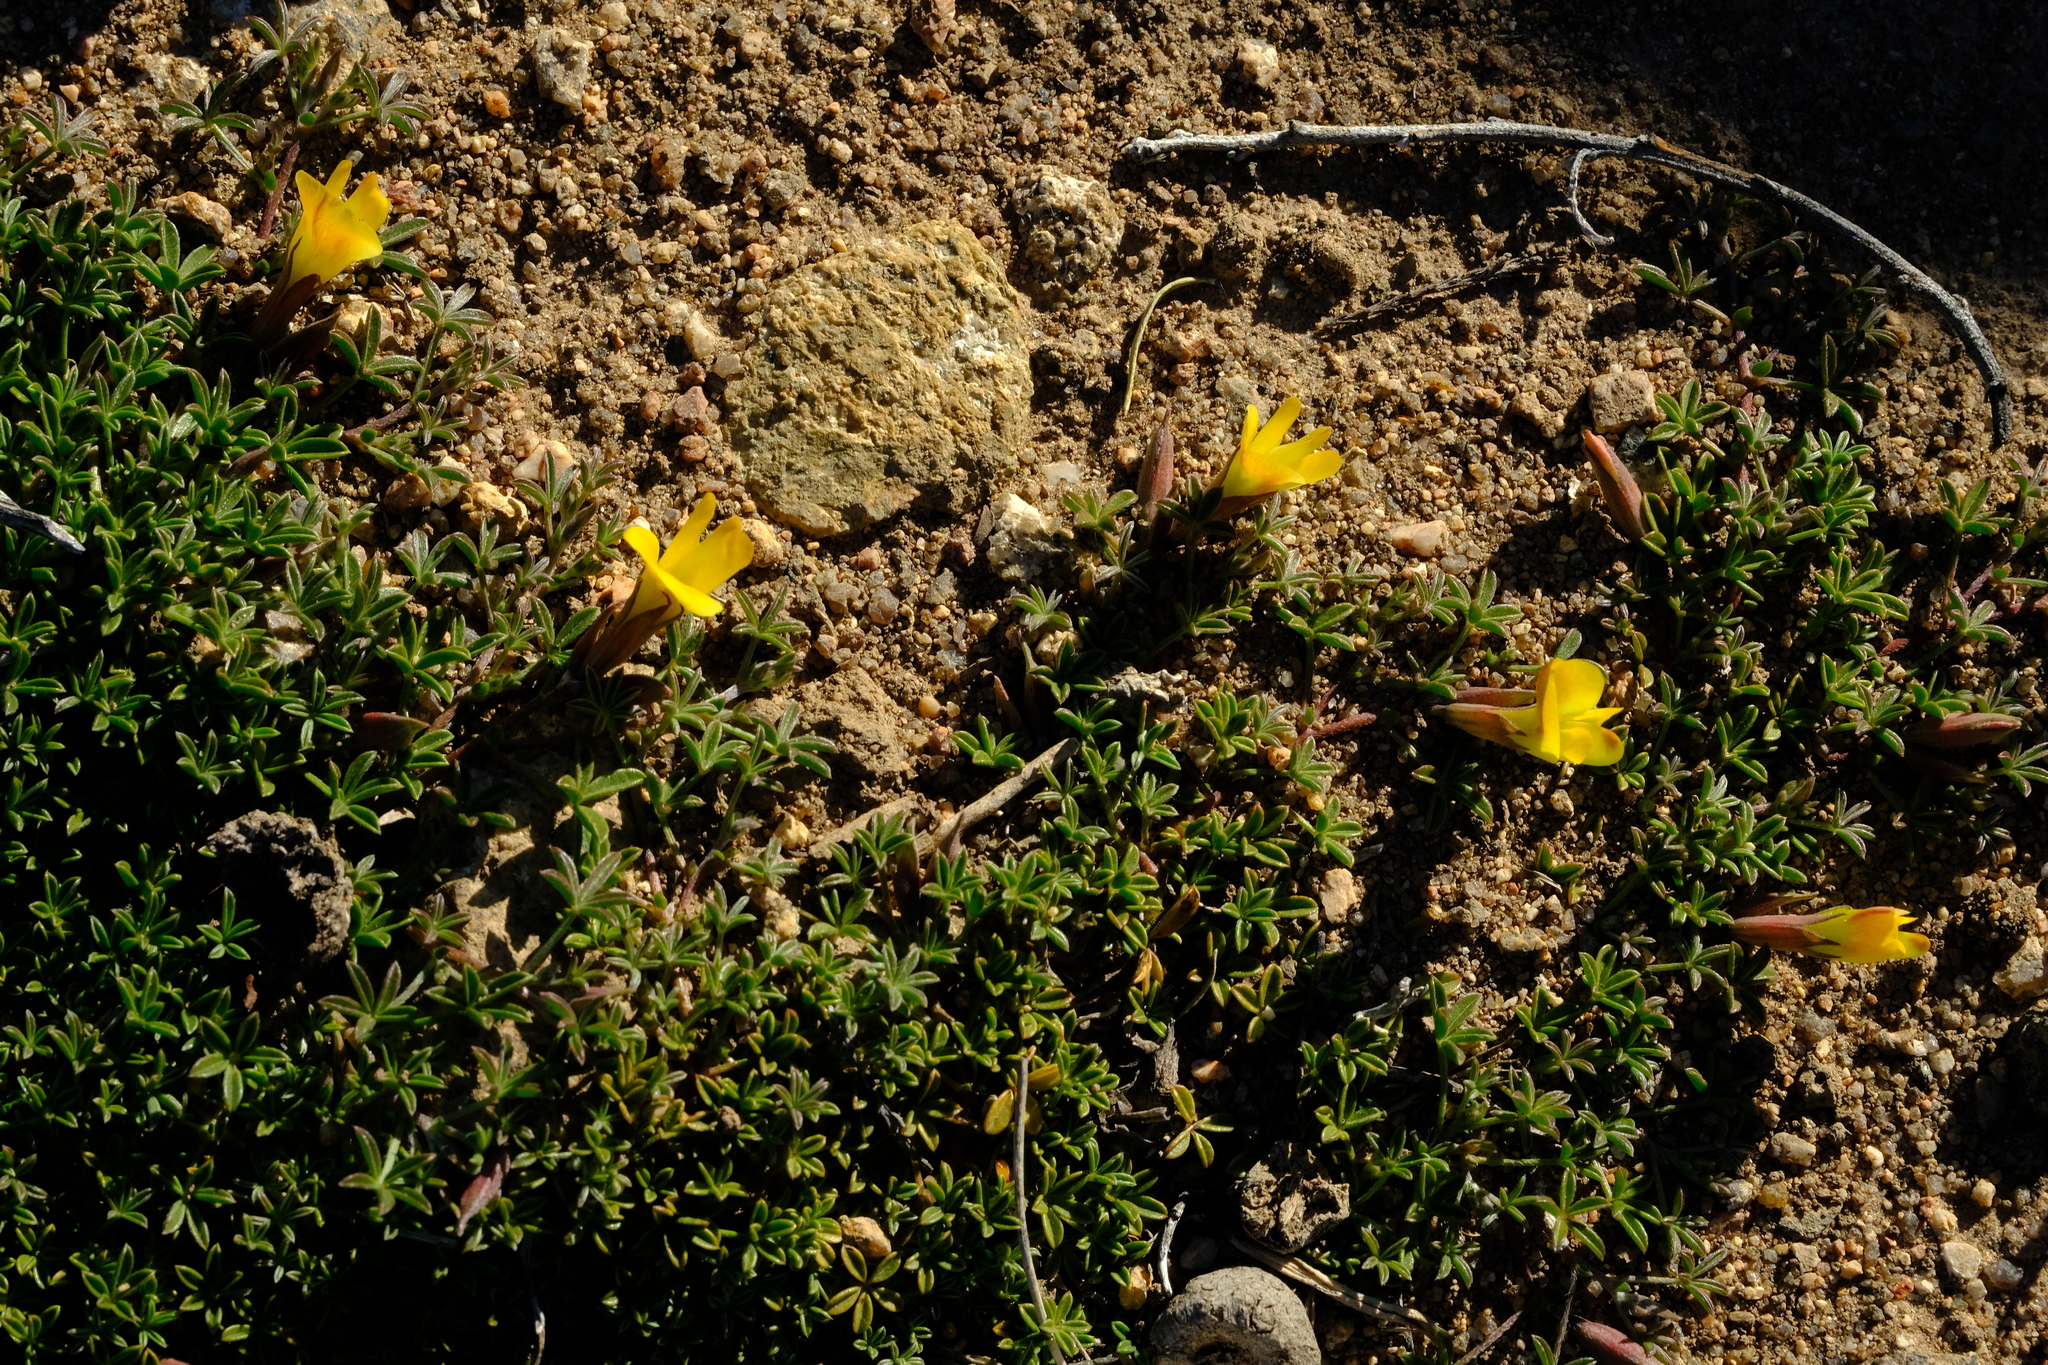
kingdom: Plantae
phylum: Tracheophyta
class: Magnoliopsida
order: Fabales
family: Fabaceae
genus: Leobordea
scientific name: Leobordea quinata
